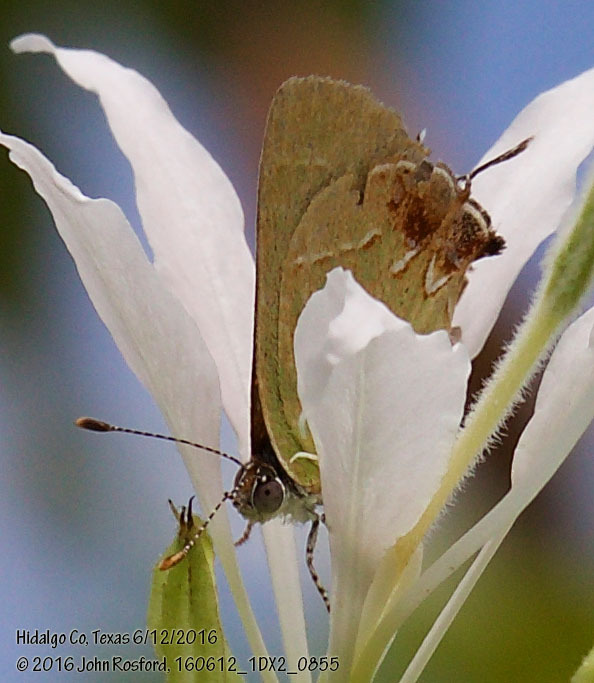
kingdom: Animalia
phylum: Arthropoda
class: Insecta
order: Lepidoptera
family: Lycaenidae
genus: Chlorostrymon
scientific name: Chlorostrymon telea
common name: Telea hairstreak
